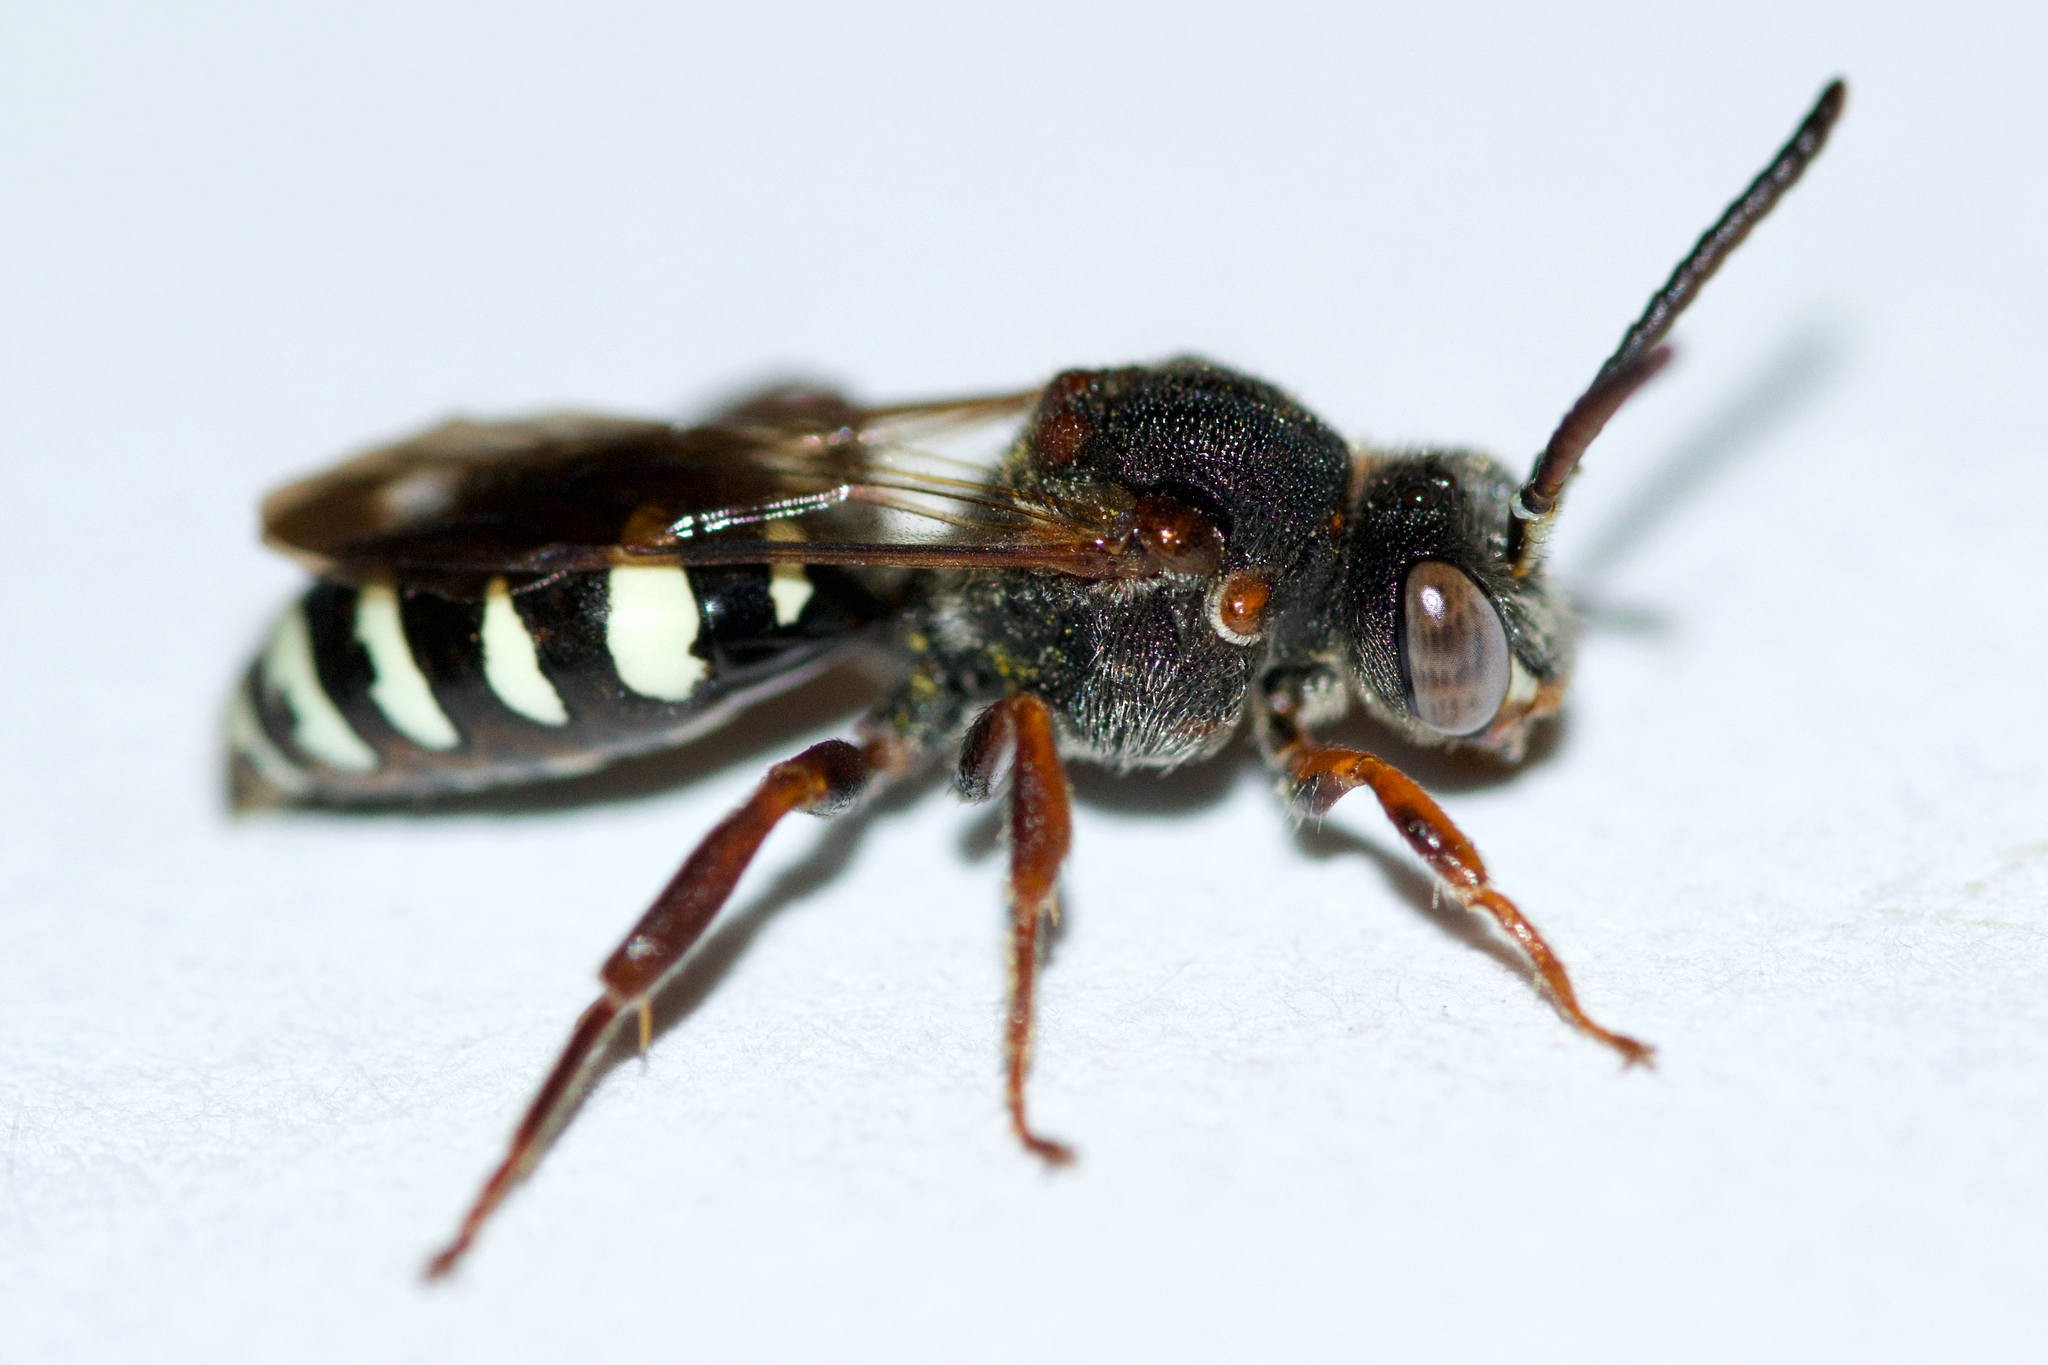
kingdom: Animalia
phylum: Arthropoda
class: Insecta
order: Hymenoptera
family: Apidae
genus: Nomada
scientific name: Nomada vicina
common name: Neighborly nomad
